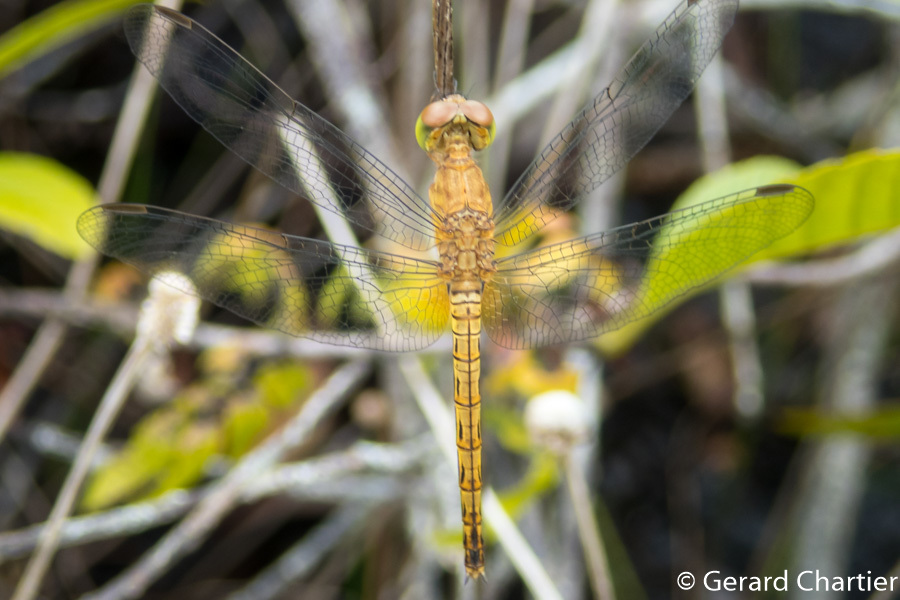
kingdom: Animalia
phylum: Arthropoda
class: Insecta
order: Odonata
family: Libellulidae
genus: Neurothemis
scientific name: Neurothemis fluctuans
